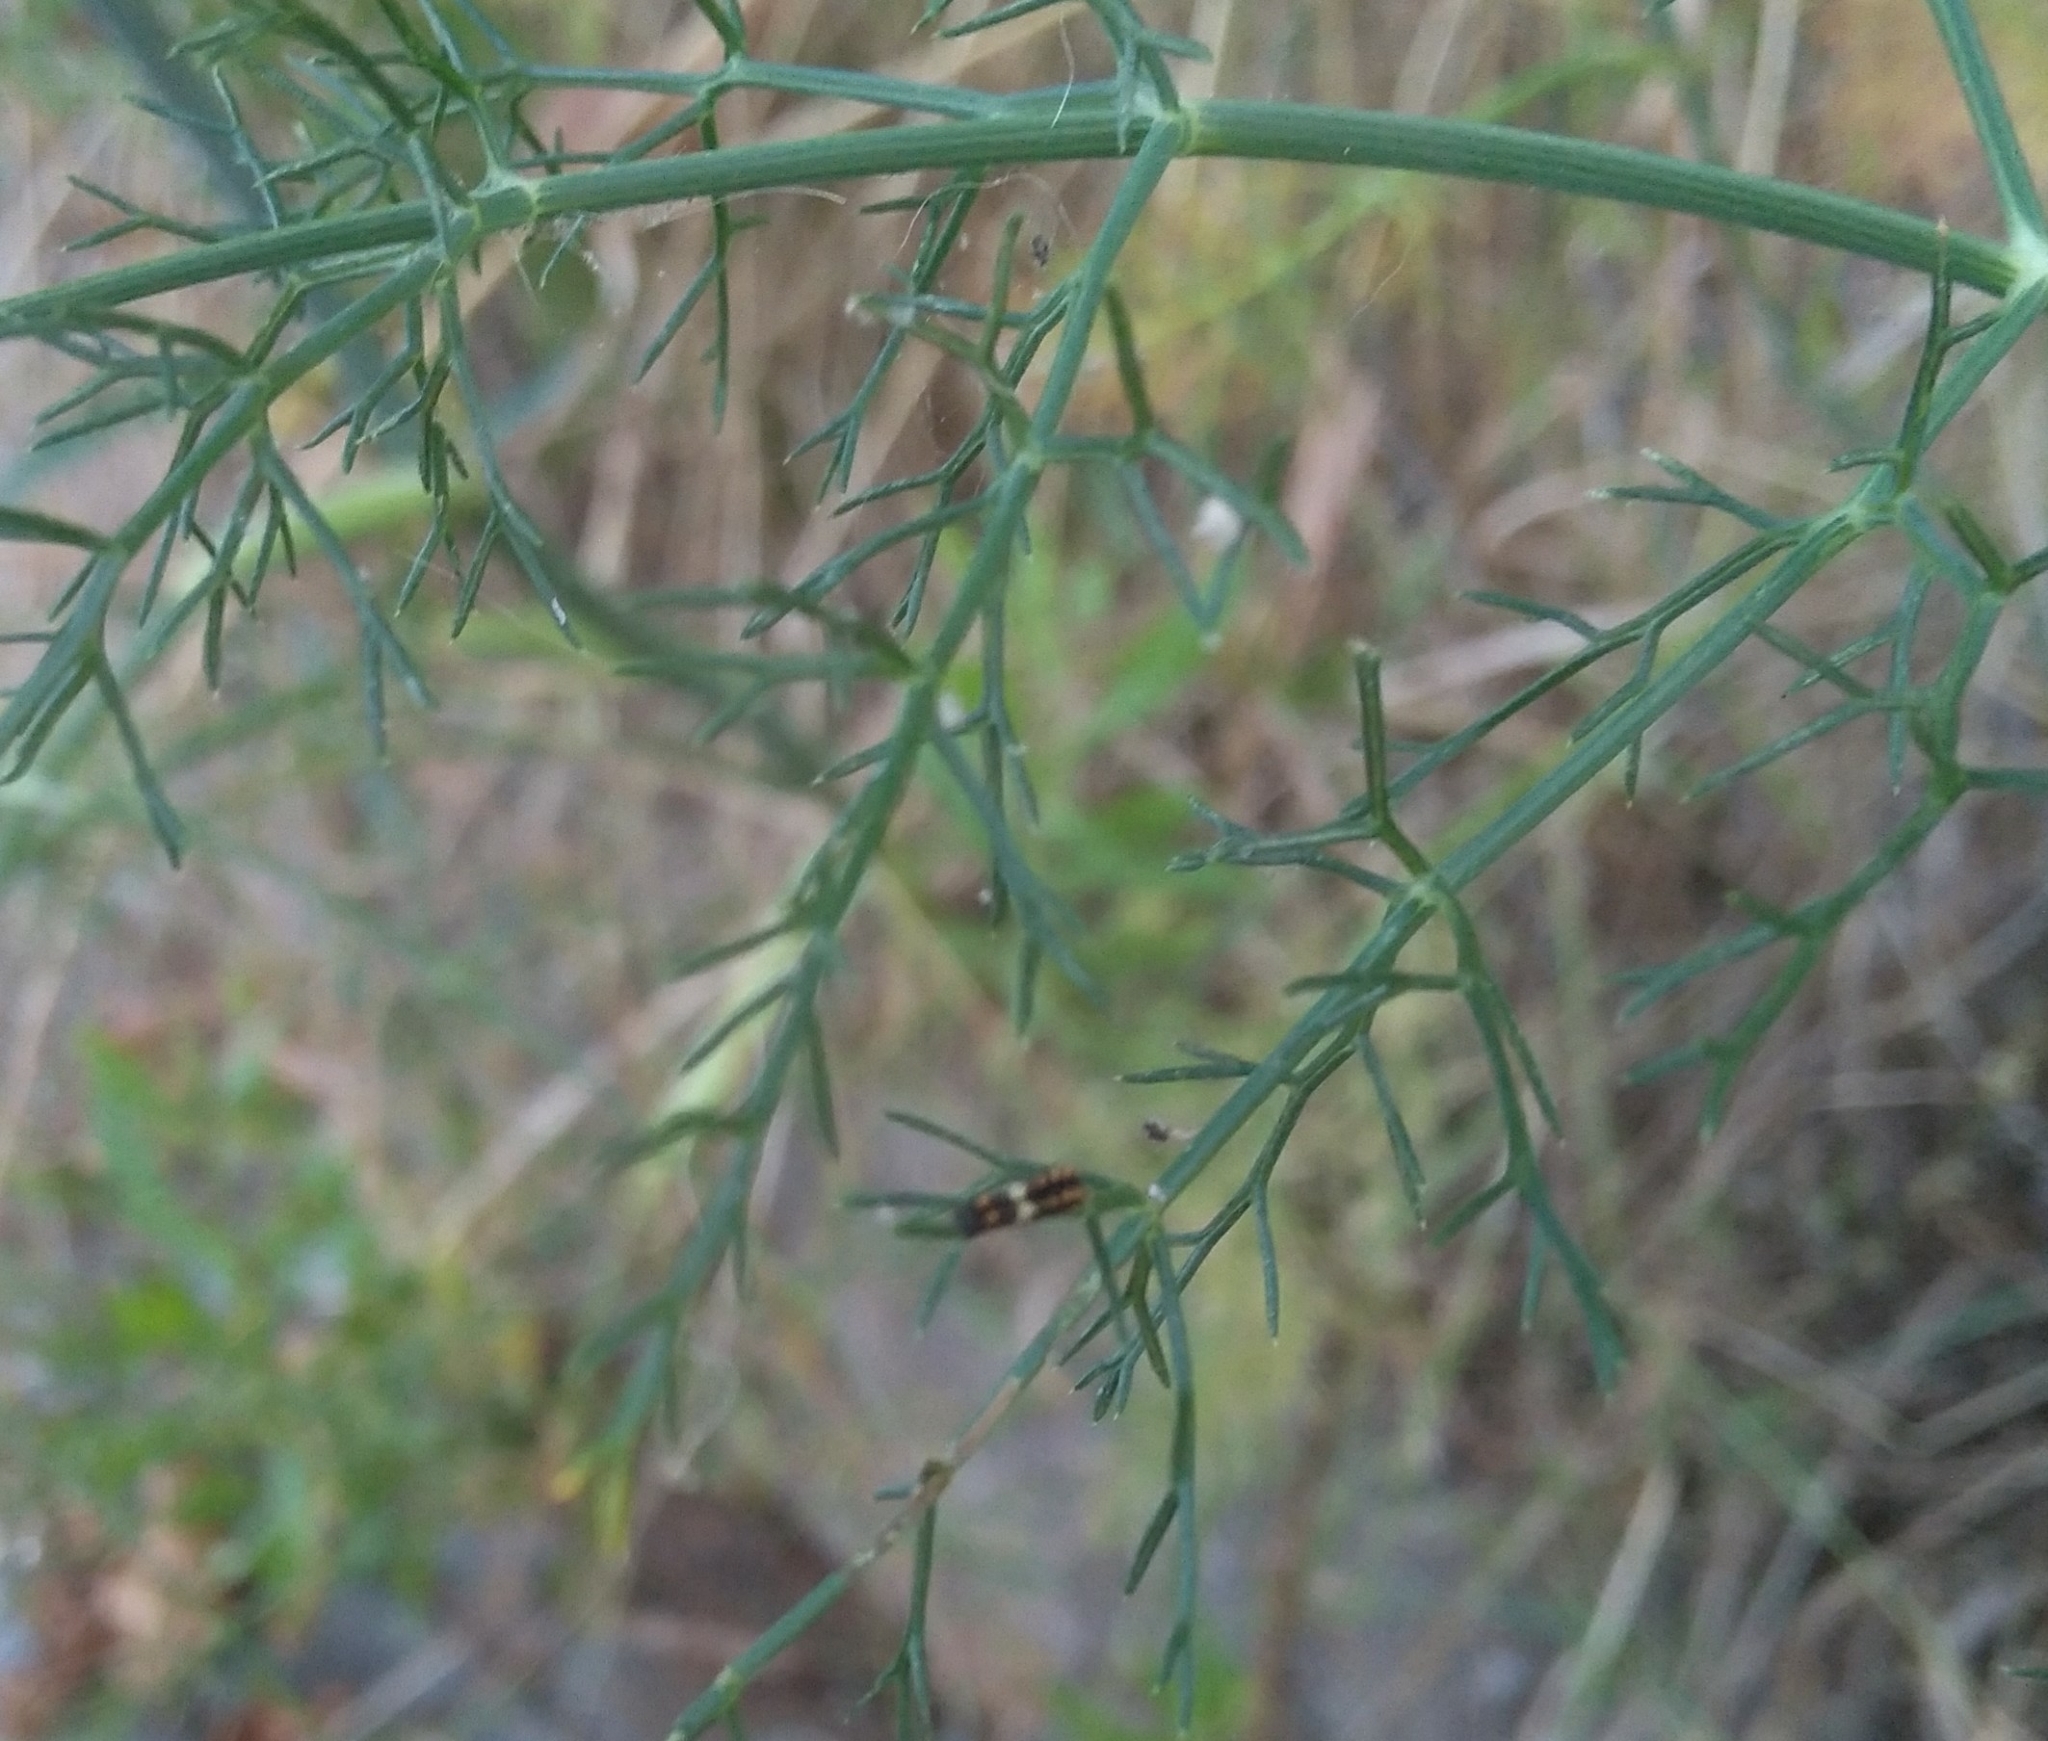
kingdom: Animalia
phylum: Arthropoda
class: Insecta
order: Lepidoptera
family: Papilionidae
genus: Papilio
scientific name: Papilio machaon
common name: Swallowtail
